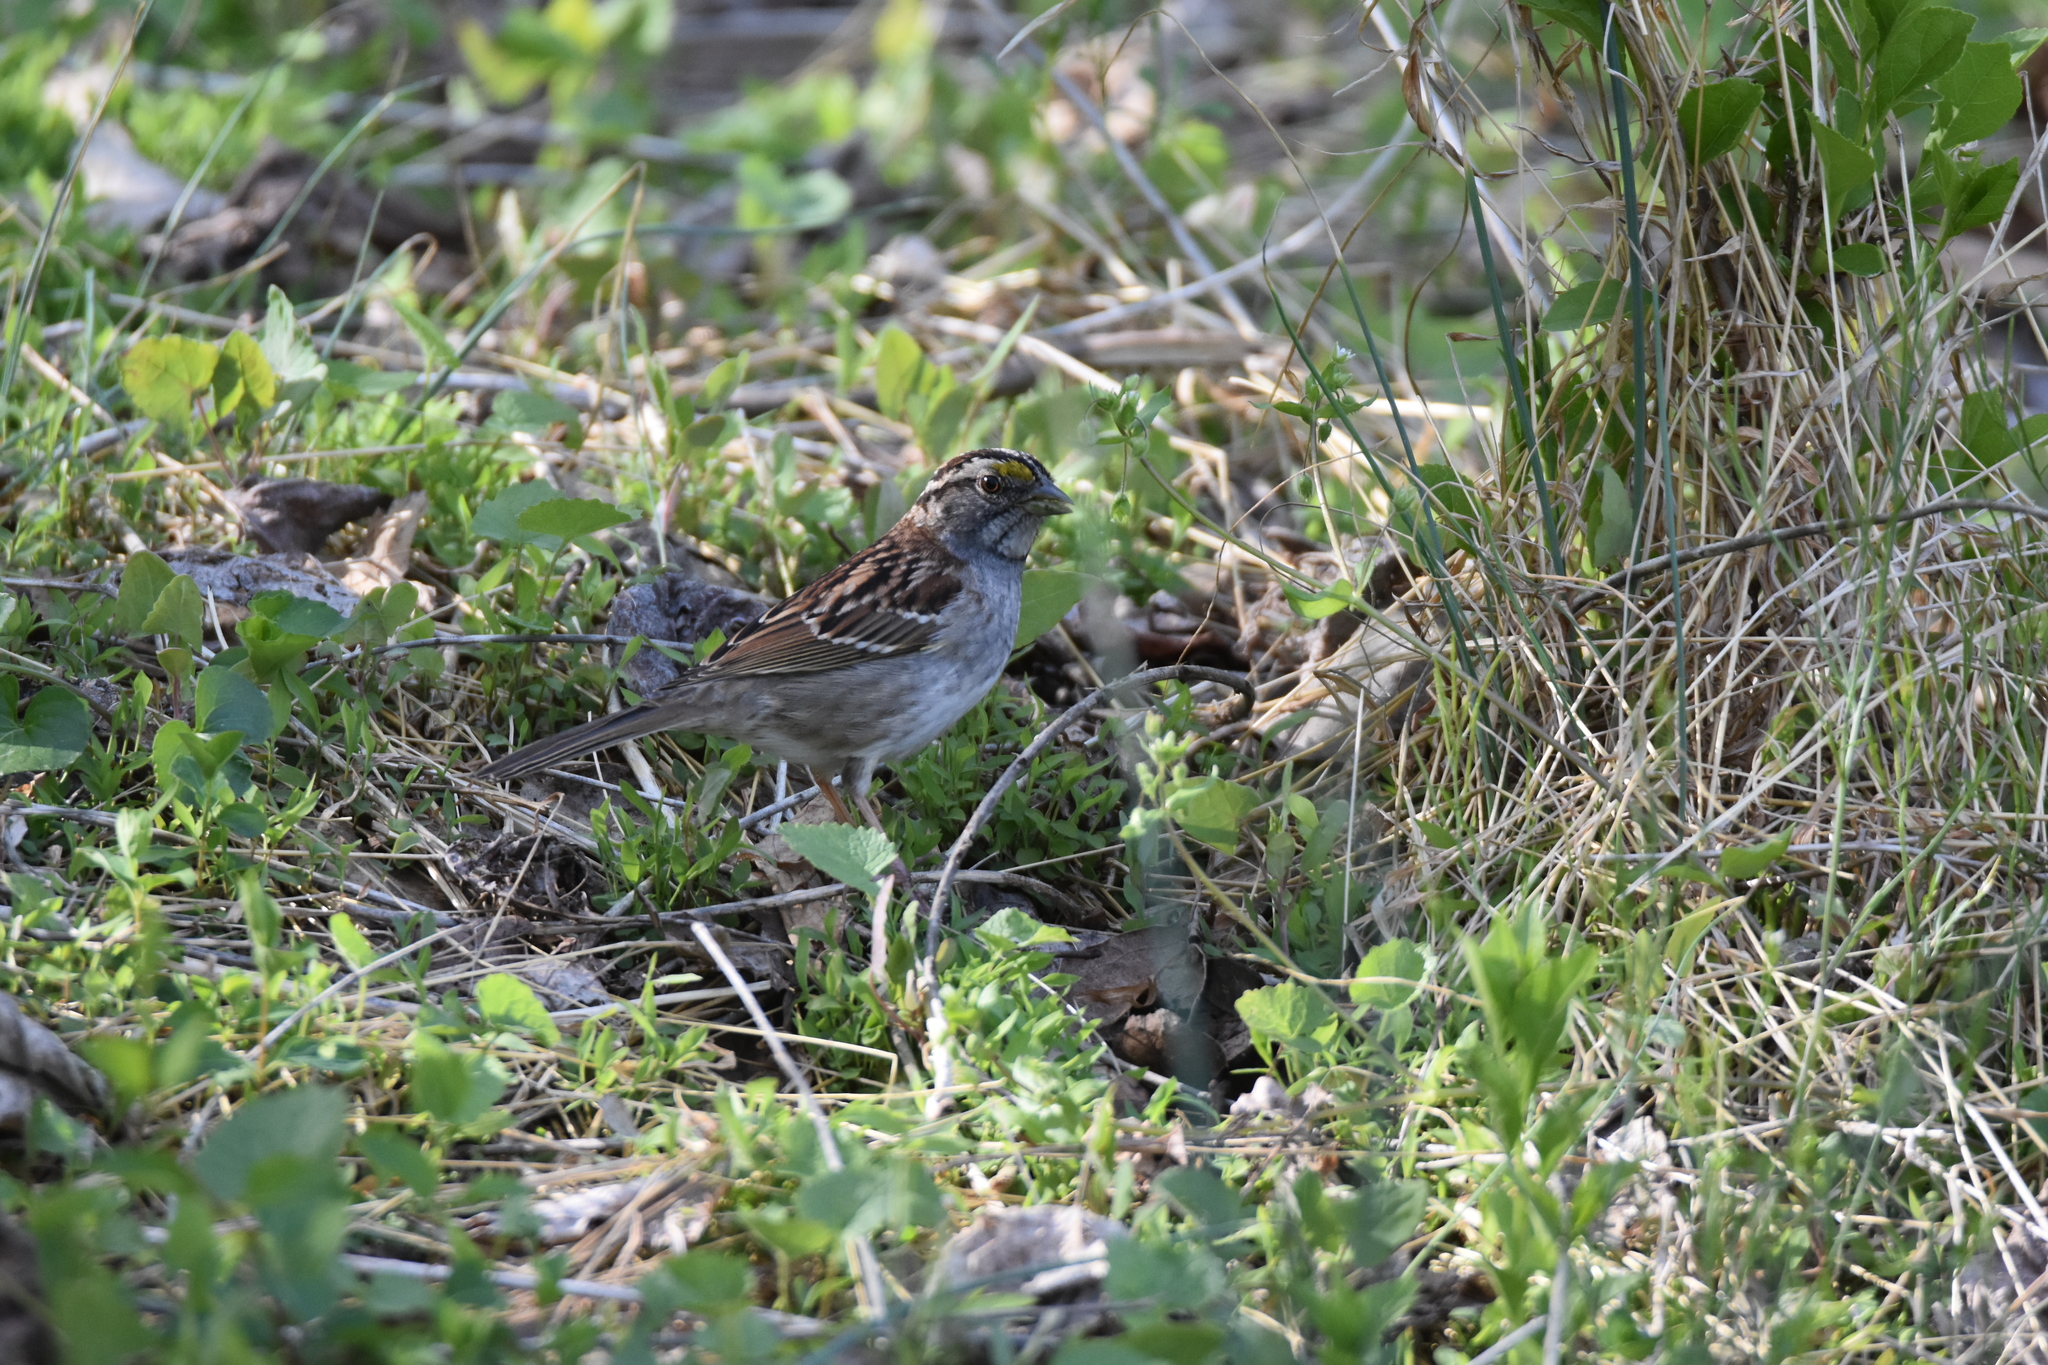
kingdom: Animalia
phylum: Chordata
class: Aves
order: Passeriformes
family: Passerellidae
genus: Zonotrichia
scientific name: Zonotrichia albicollis
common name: White-throated sparrow
